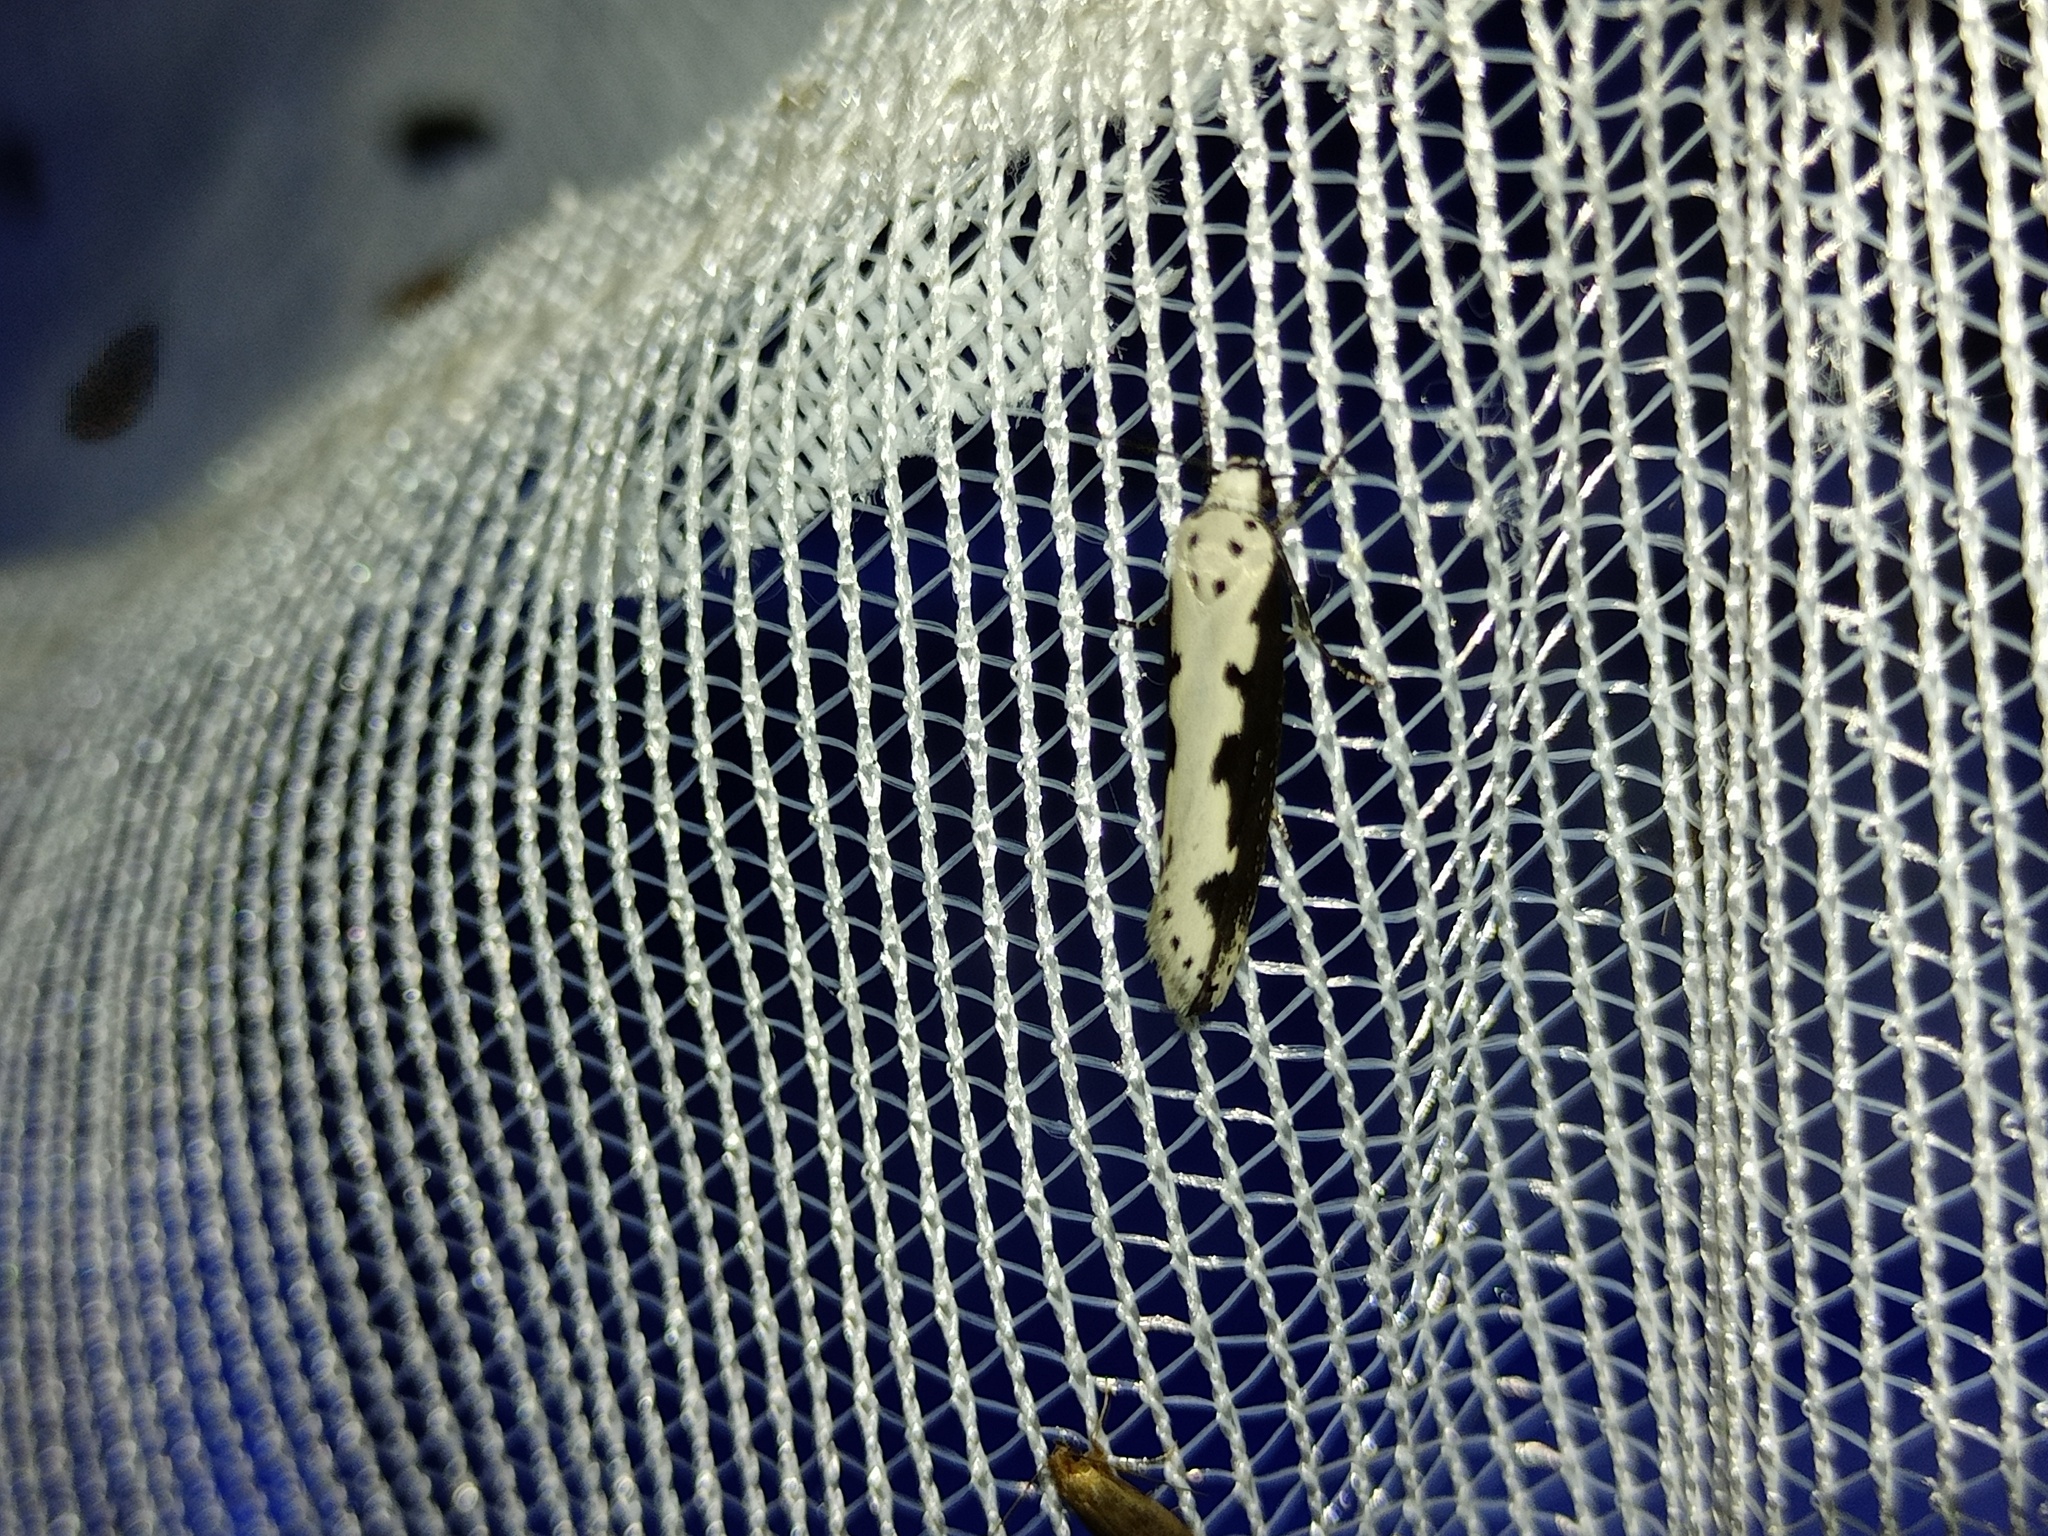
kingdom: Animalia
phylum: Arthropoda
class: Insecta
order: Lepidoptera
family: Ethmiidae
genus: Ethmia
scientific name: Ethmia bipunctella
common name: Bordered ermel
